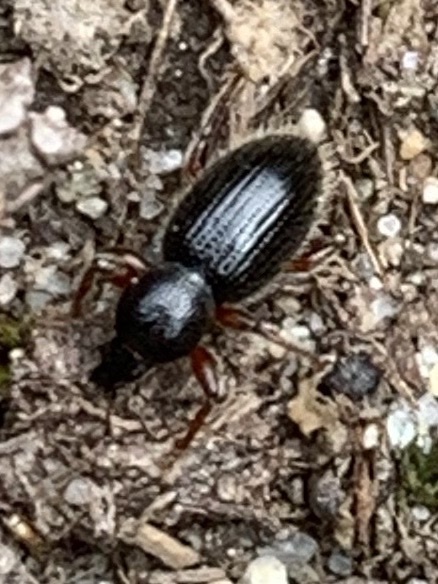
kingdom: Animalia
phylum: Arthropoda
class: Insecta
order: Coleoptera
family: Curculionidae
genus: Exomias
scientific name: Exomias pellucidus
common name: Hairy spider weevil
